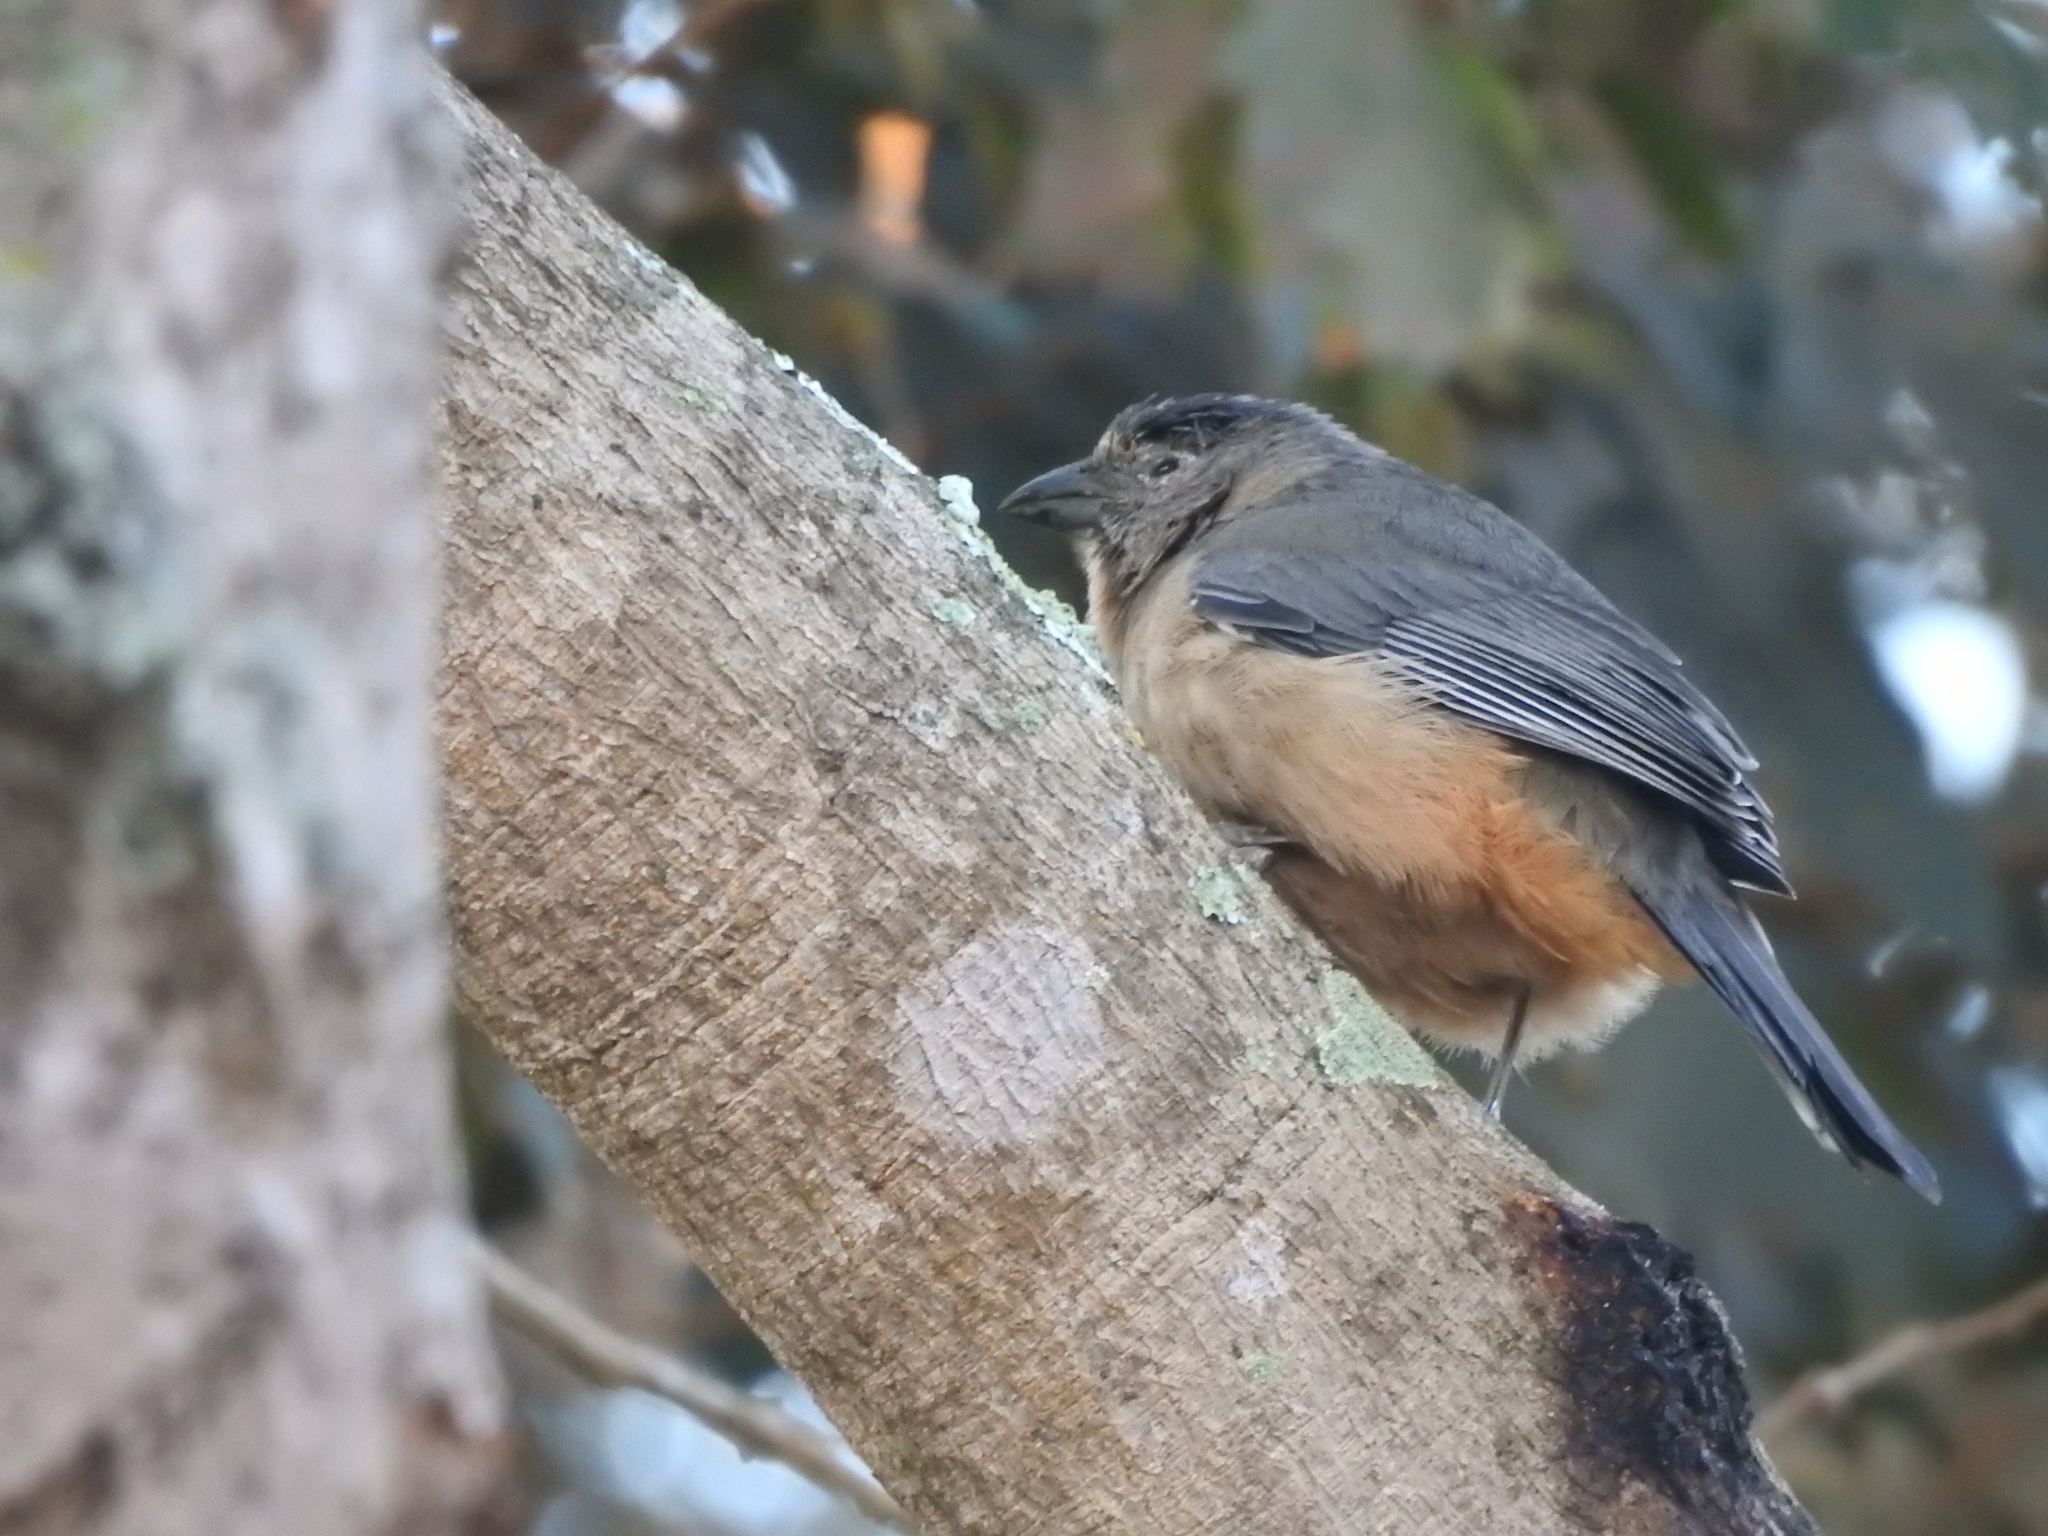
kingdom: Animalia
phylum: Chordata
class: Aves
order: Passeriformes
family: Thraupidae
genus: Saltator
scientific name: Saltator coerulescens
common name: Grayish saltator
